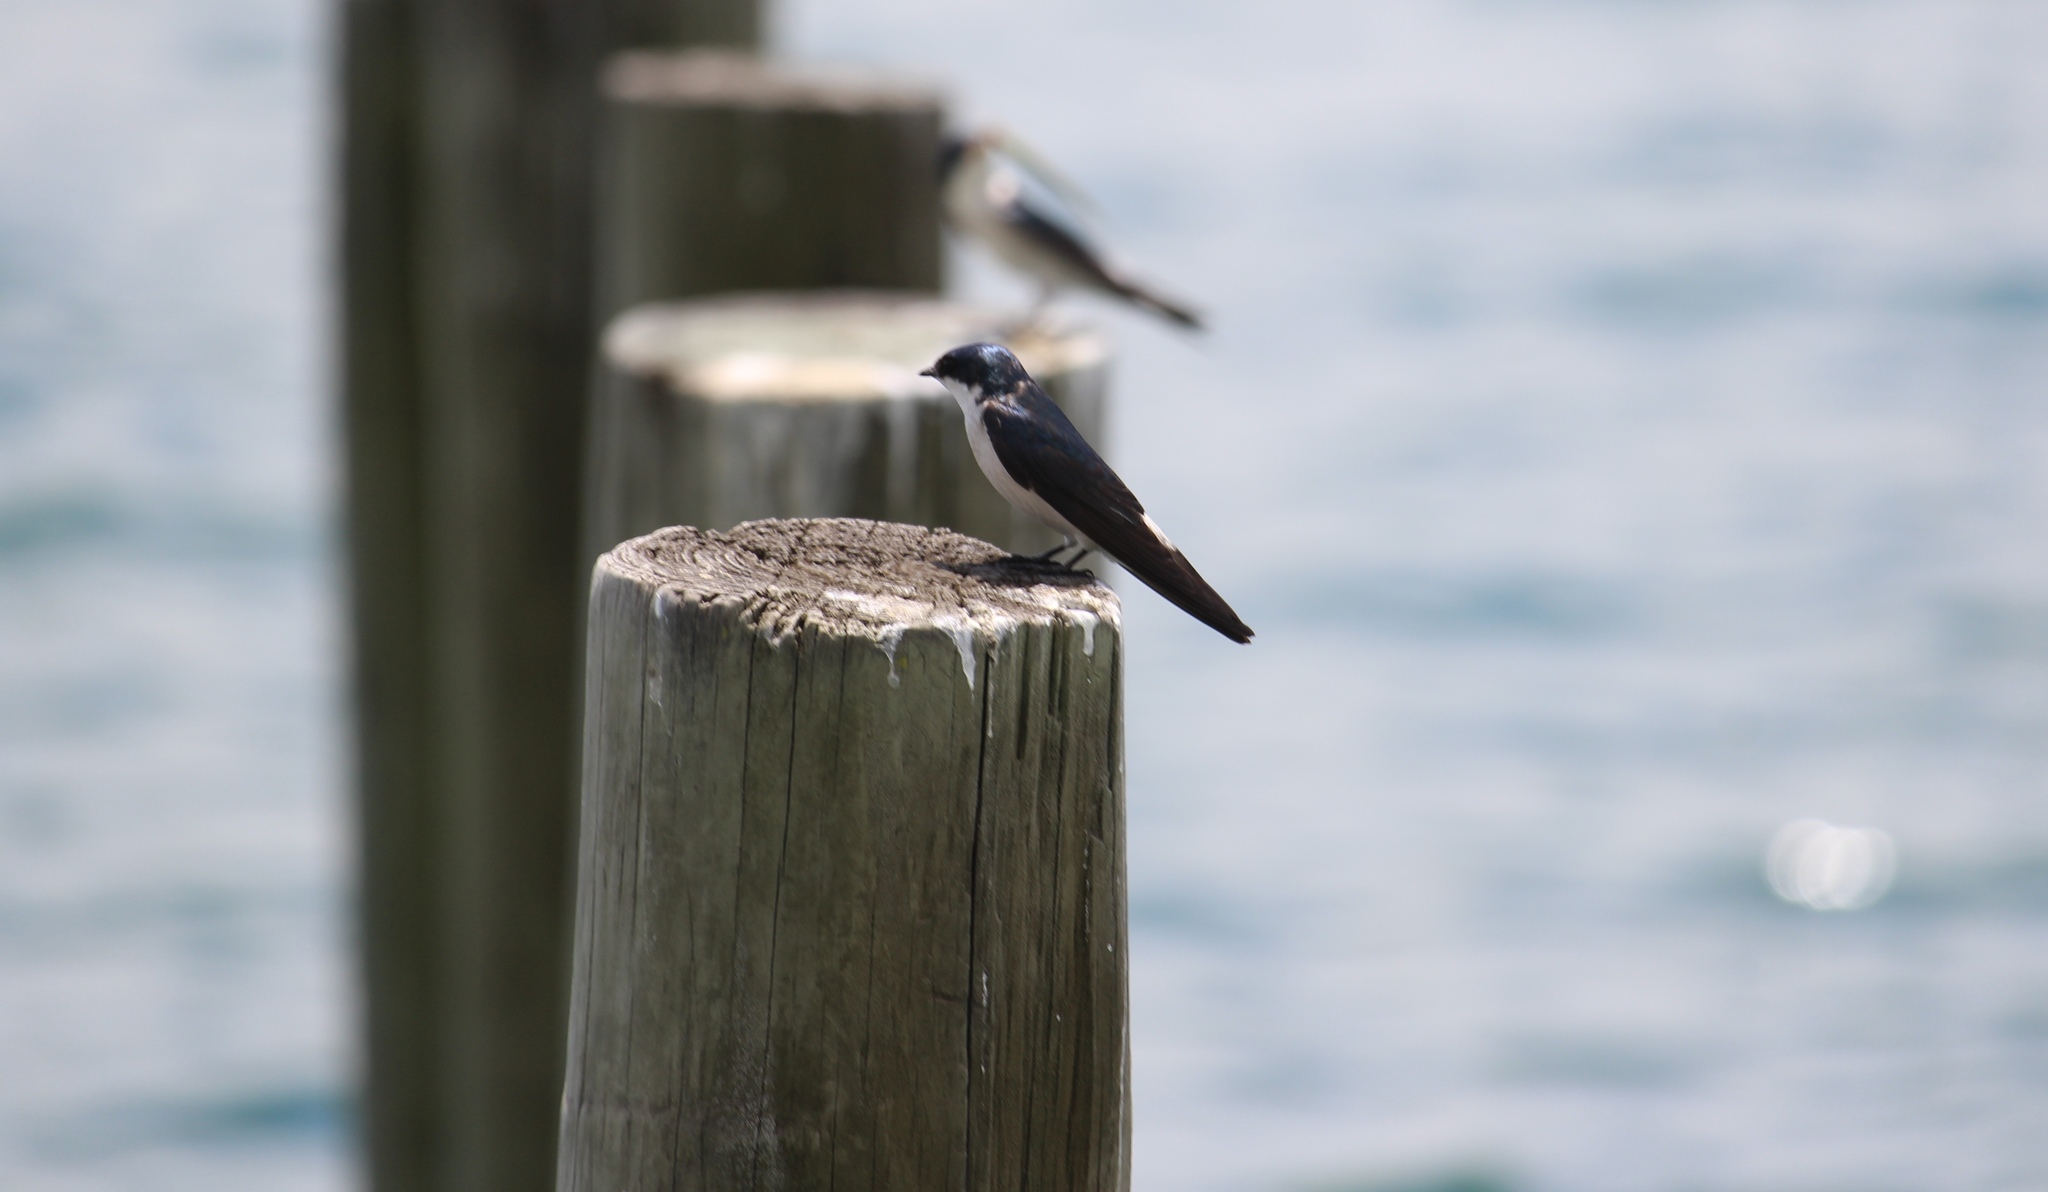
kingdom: Animalia
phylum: Chordata
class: Aves
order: Passeriformes
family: Hirundinidae
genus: Tachycineta
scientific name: Tachycineta albilinea
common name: Mangrove swallow
